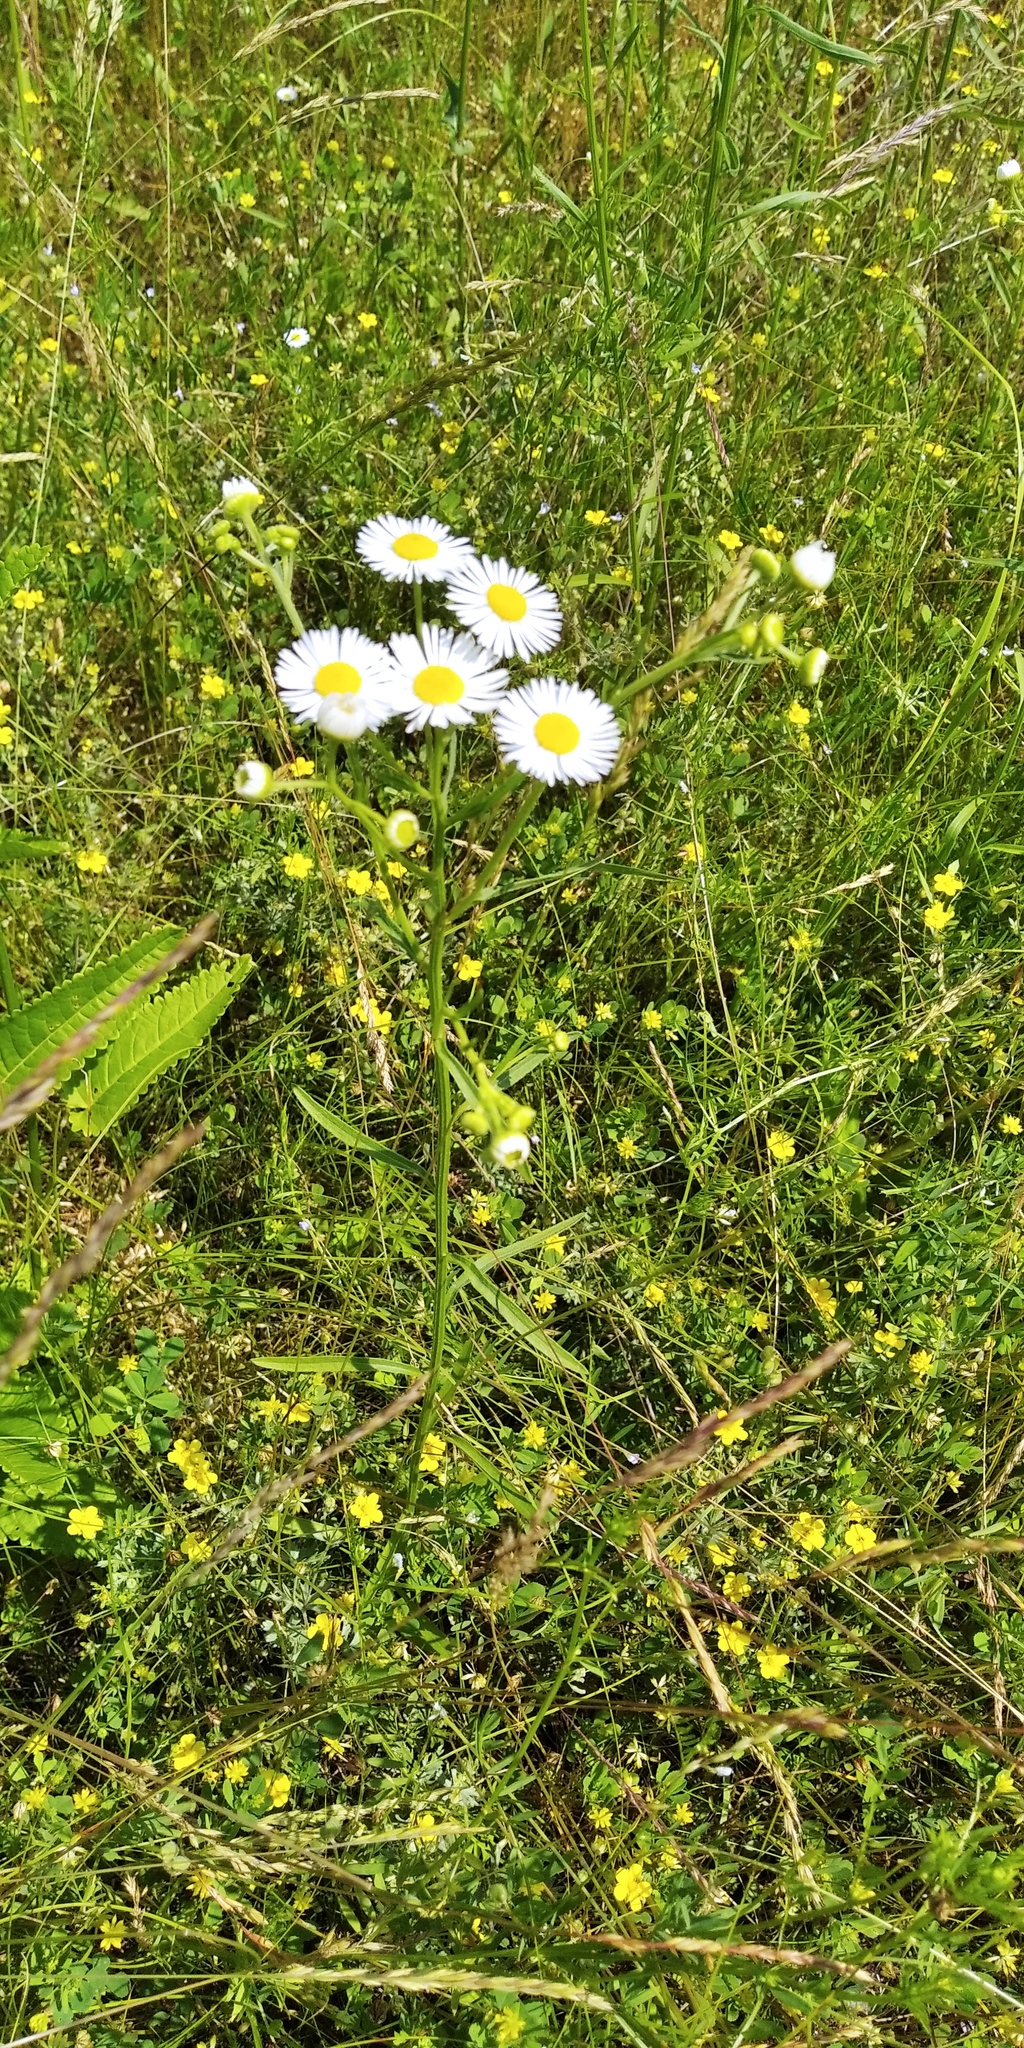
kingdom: Plantae
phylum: Tracheophyta
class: Magnoliopsida
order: Asterales
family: Asteraceae
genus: Erigeron
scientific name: Erigeron strigosus
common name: Common eastern fleabane
